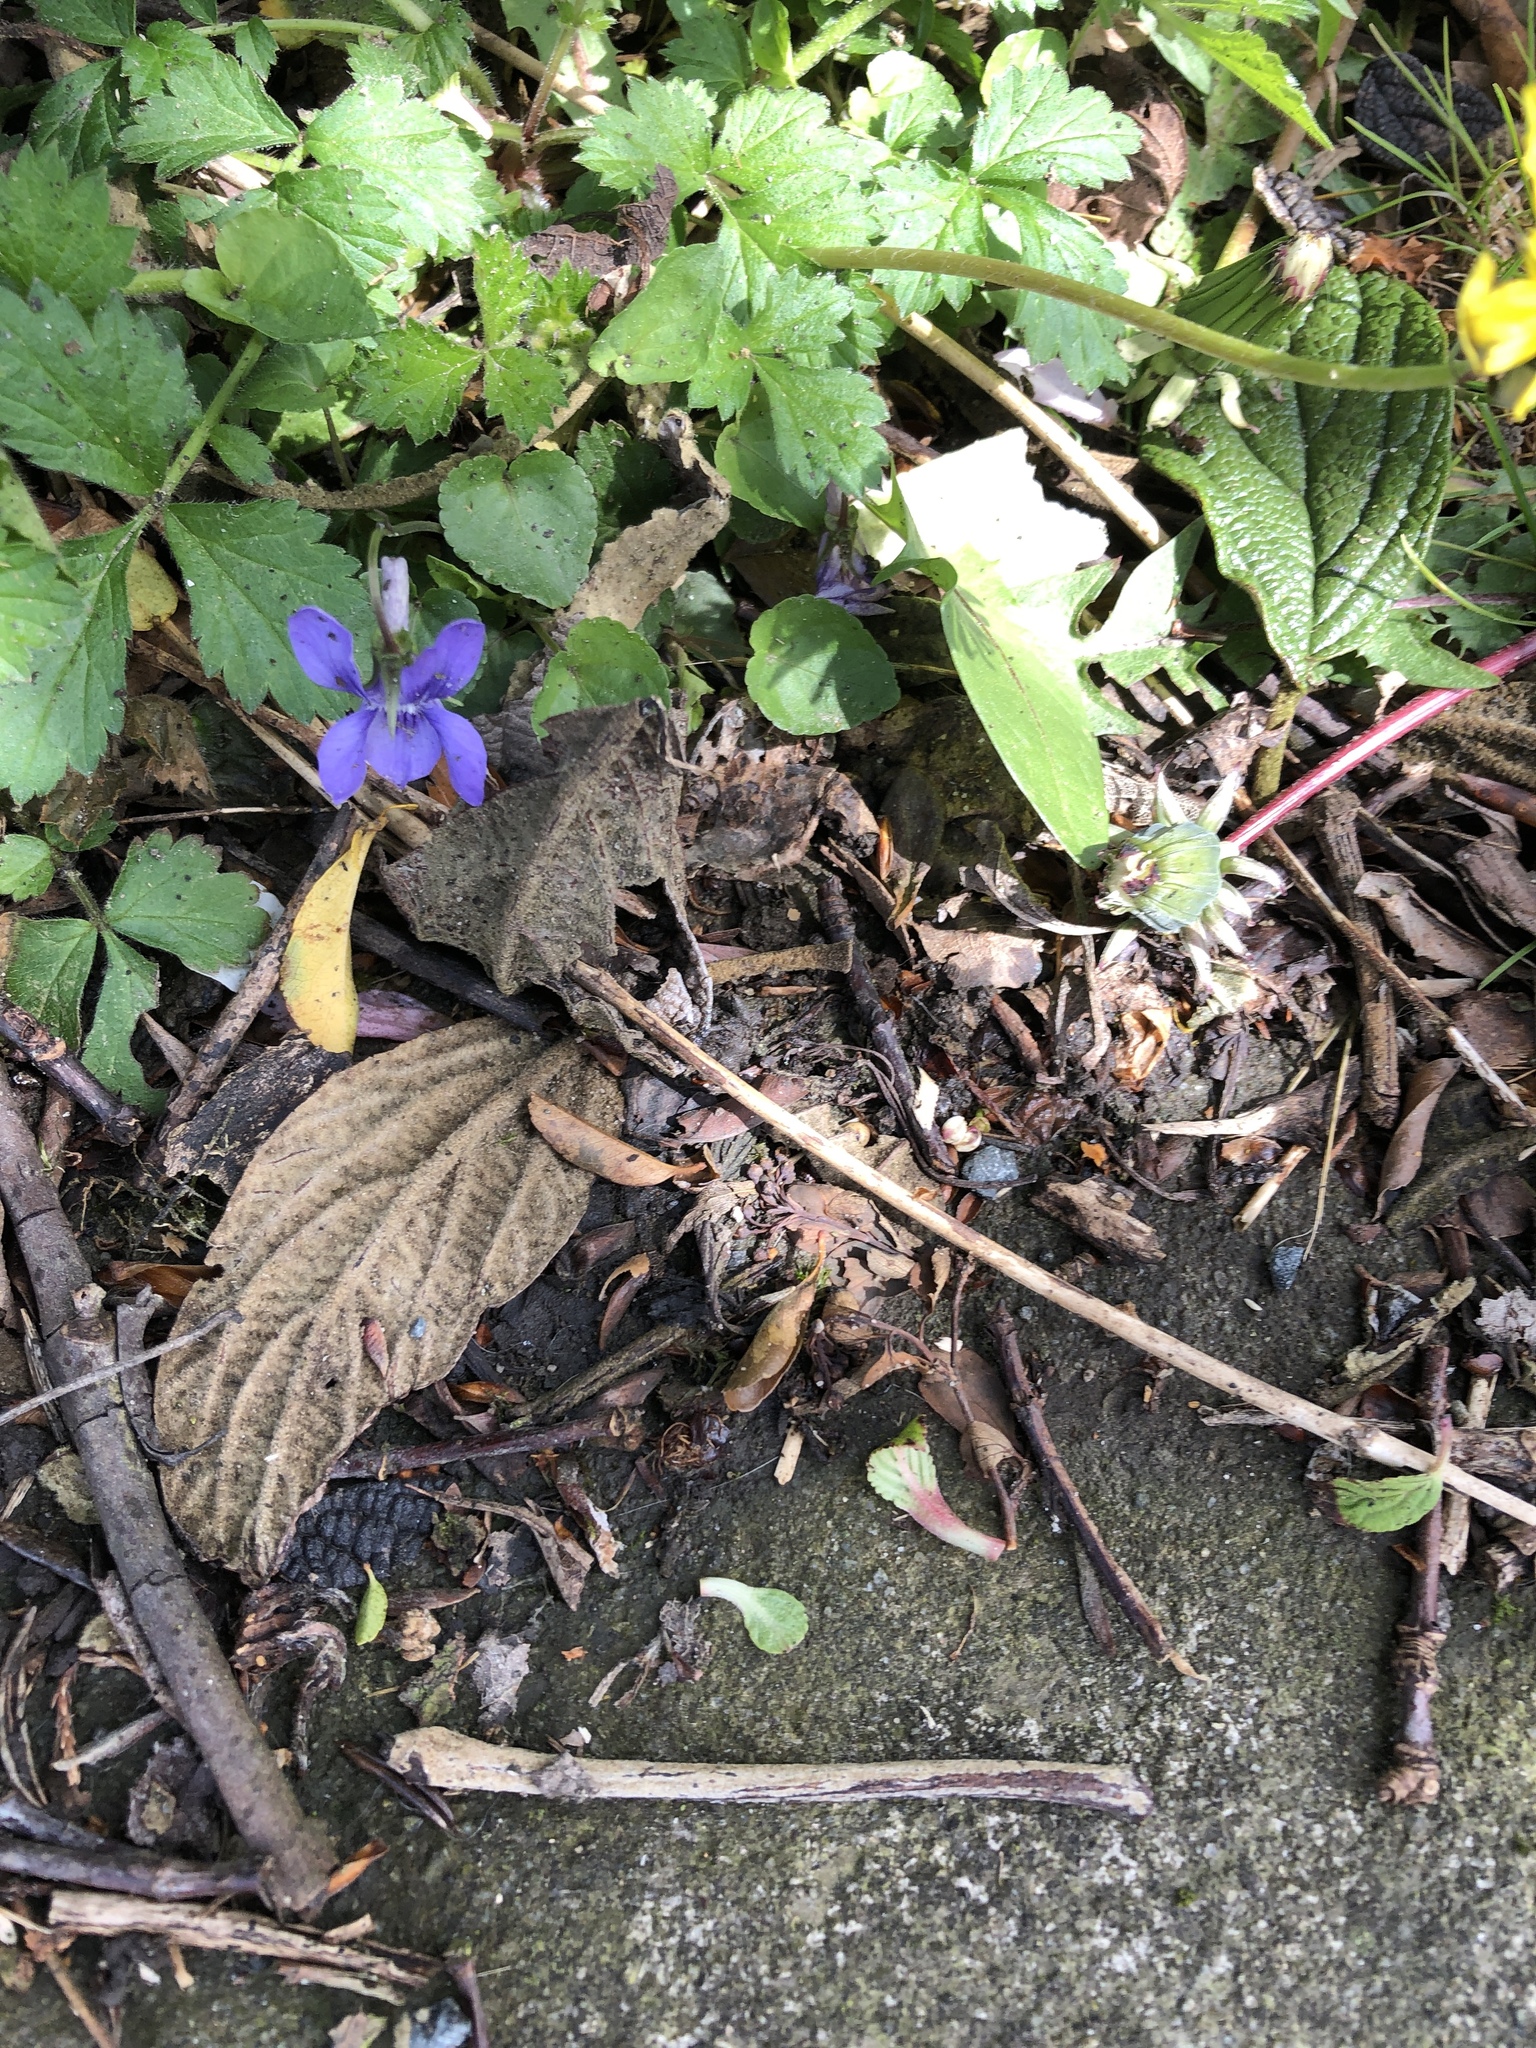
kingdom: Plantae
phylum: Tracheophyta
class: Magnoliopsida
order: Malpighiales
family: Violaceae
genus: Viola
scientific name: Viola riviniana
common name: Common dog-violet
